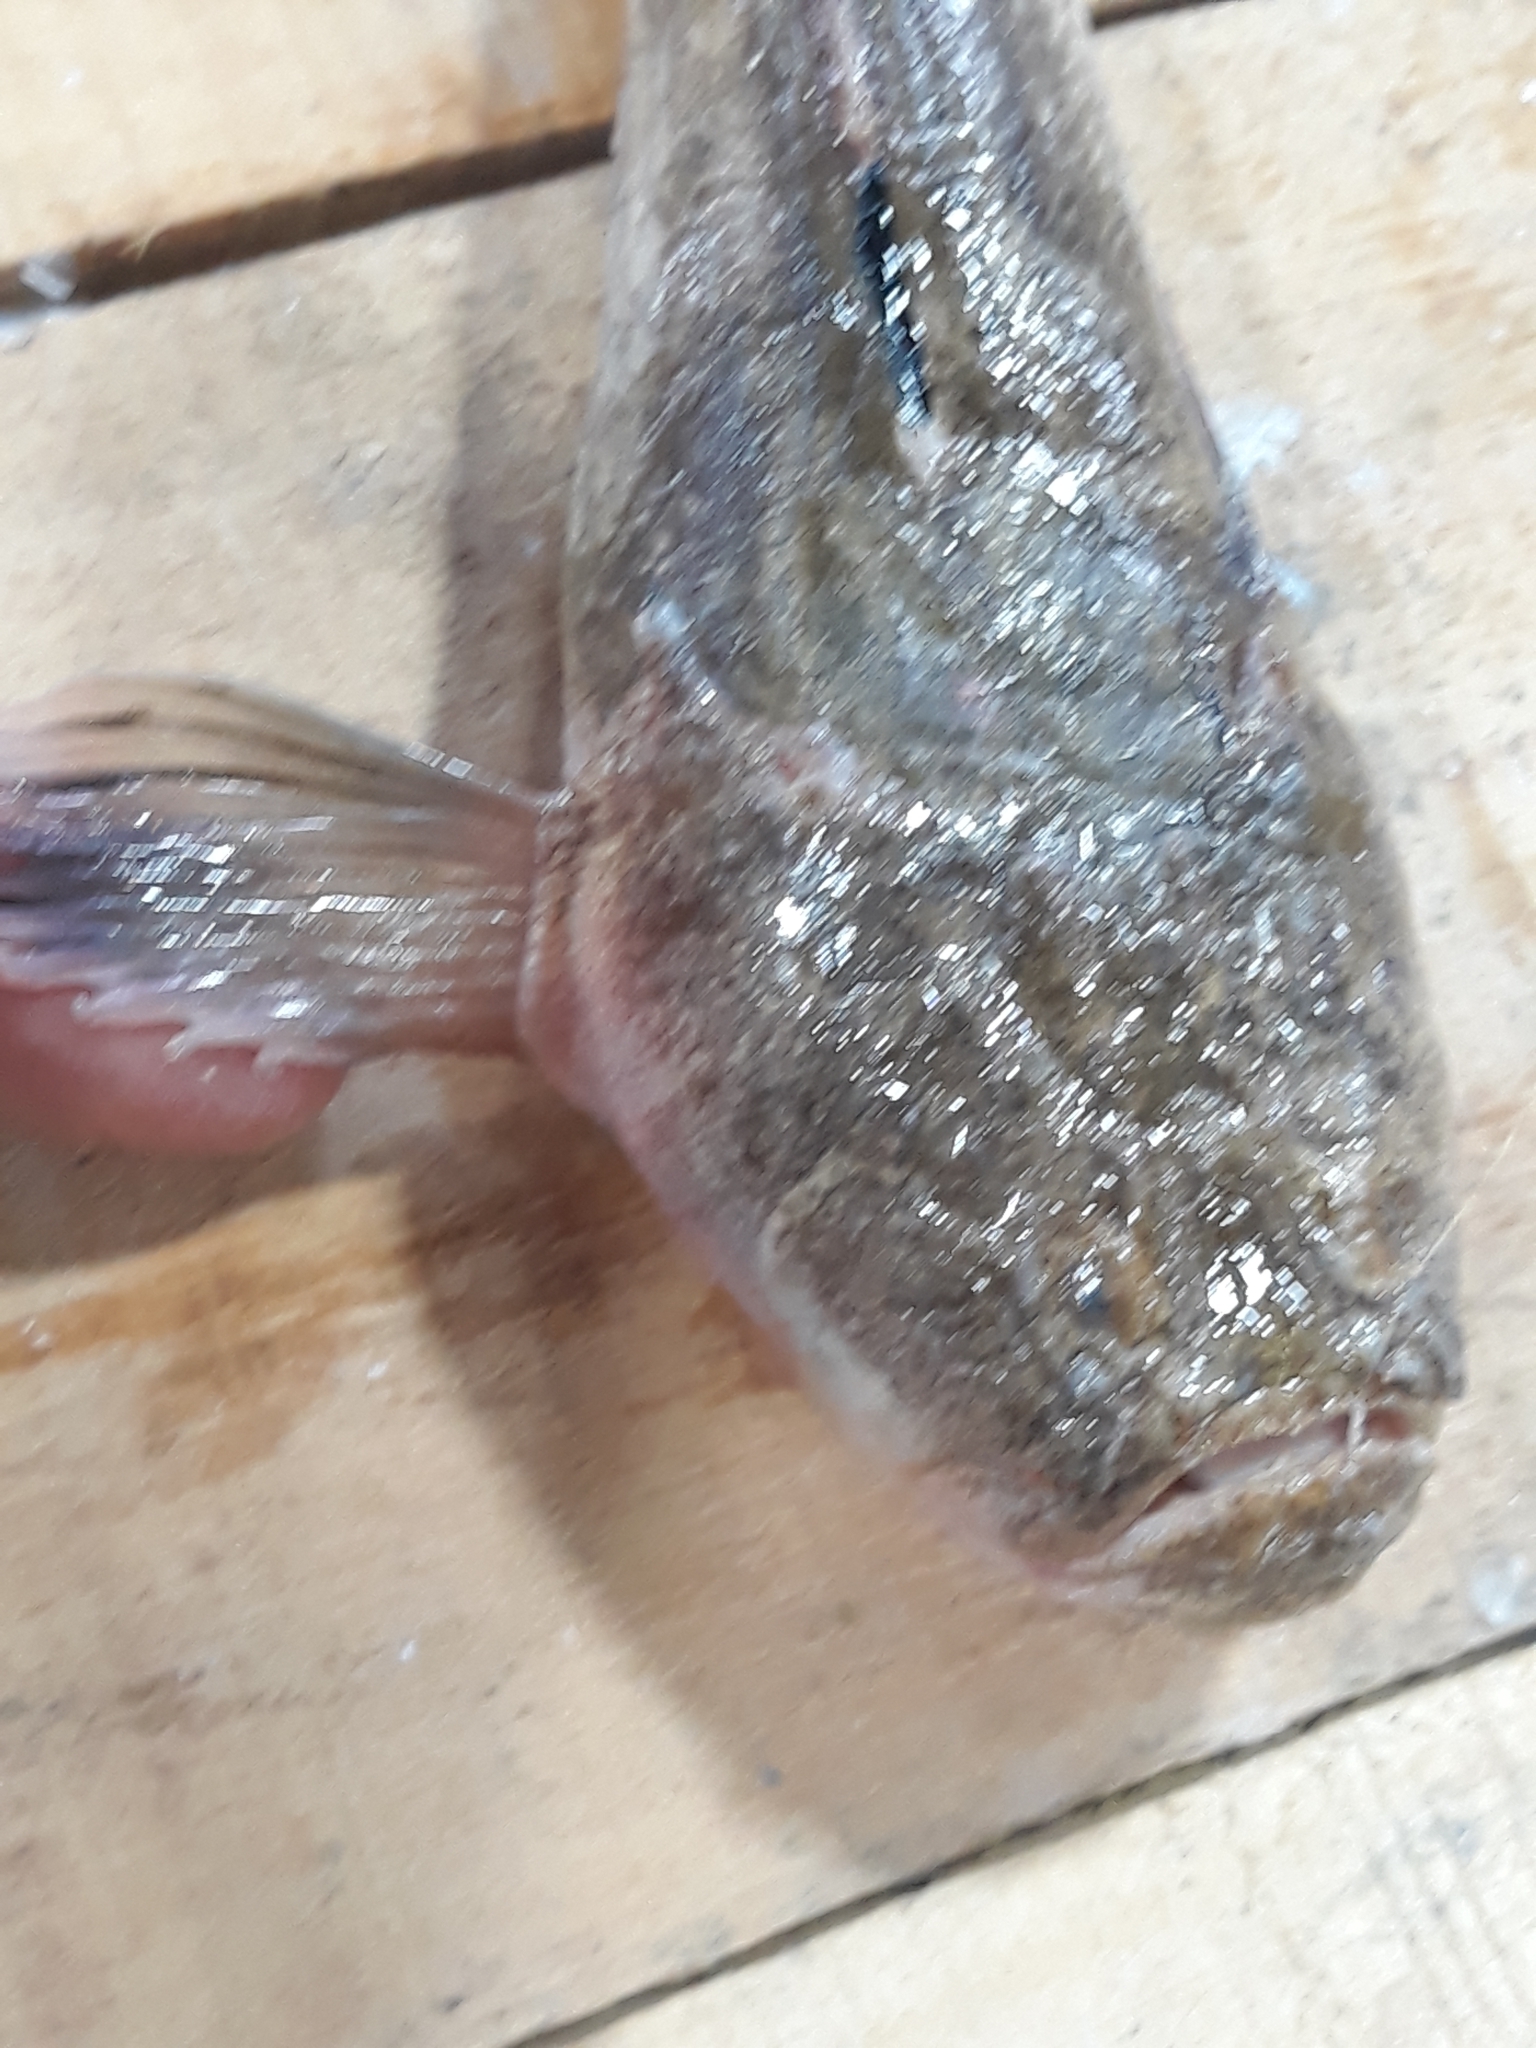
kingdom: Animalia
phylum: Chordata
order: Perciformes
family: Uranoscopidae
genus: Uranoscopus
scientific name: Uranoscopus scaber
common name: Stargazer
